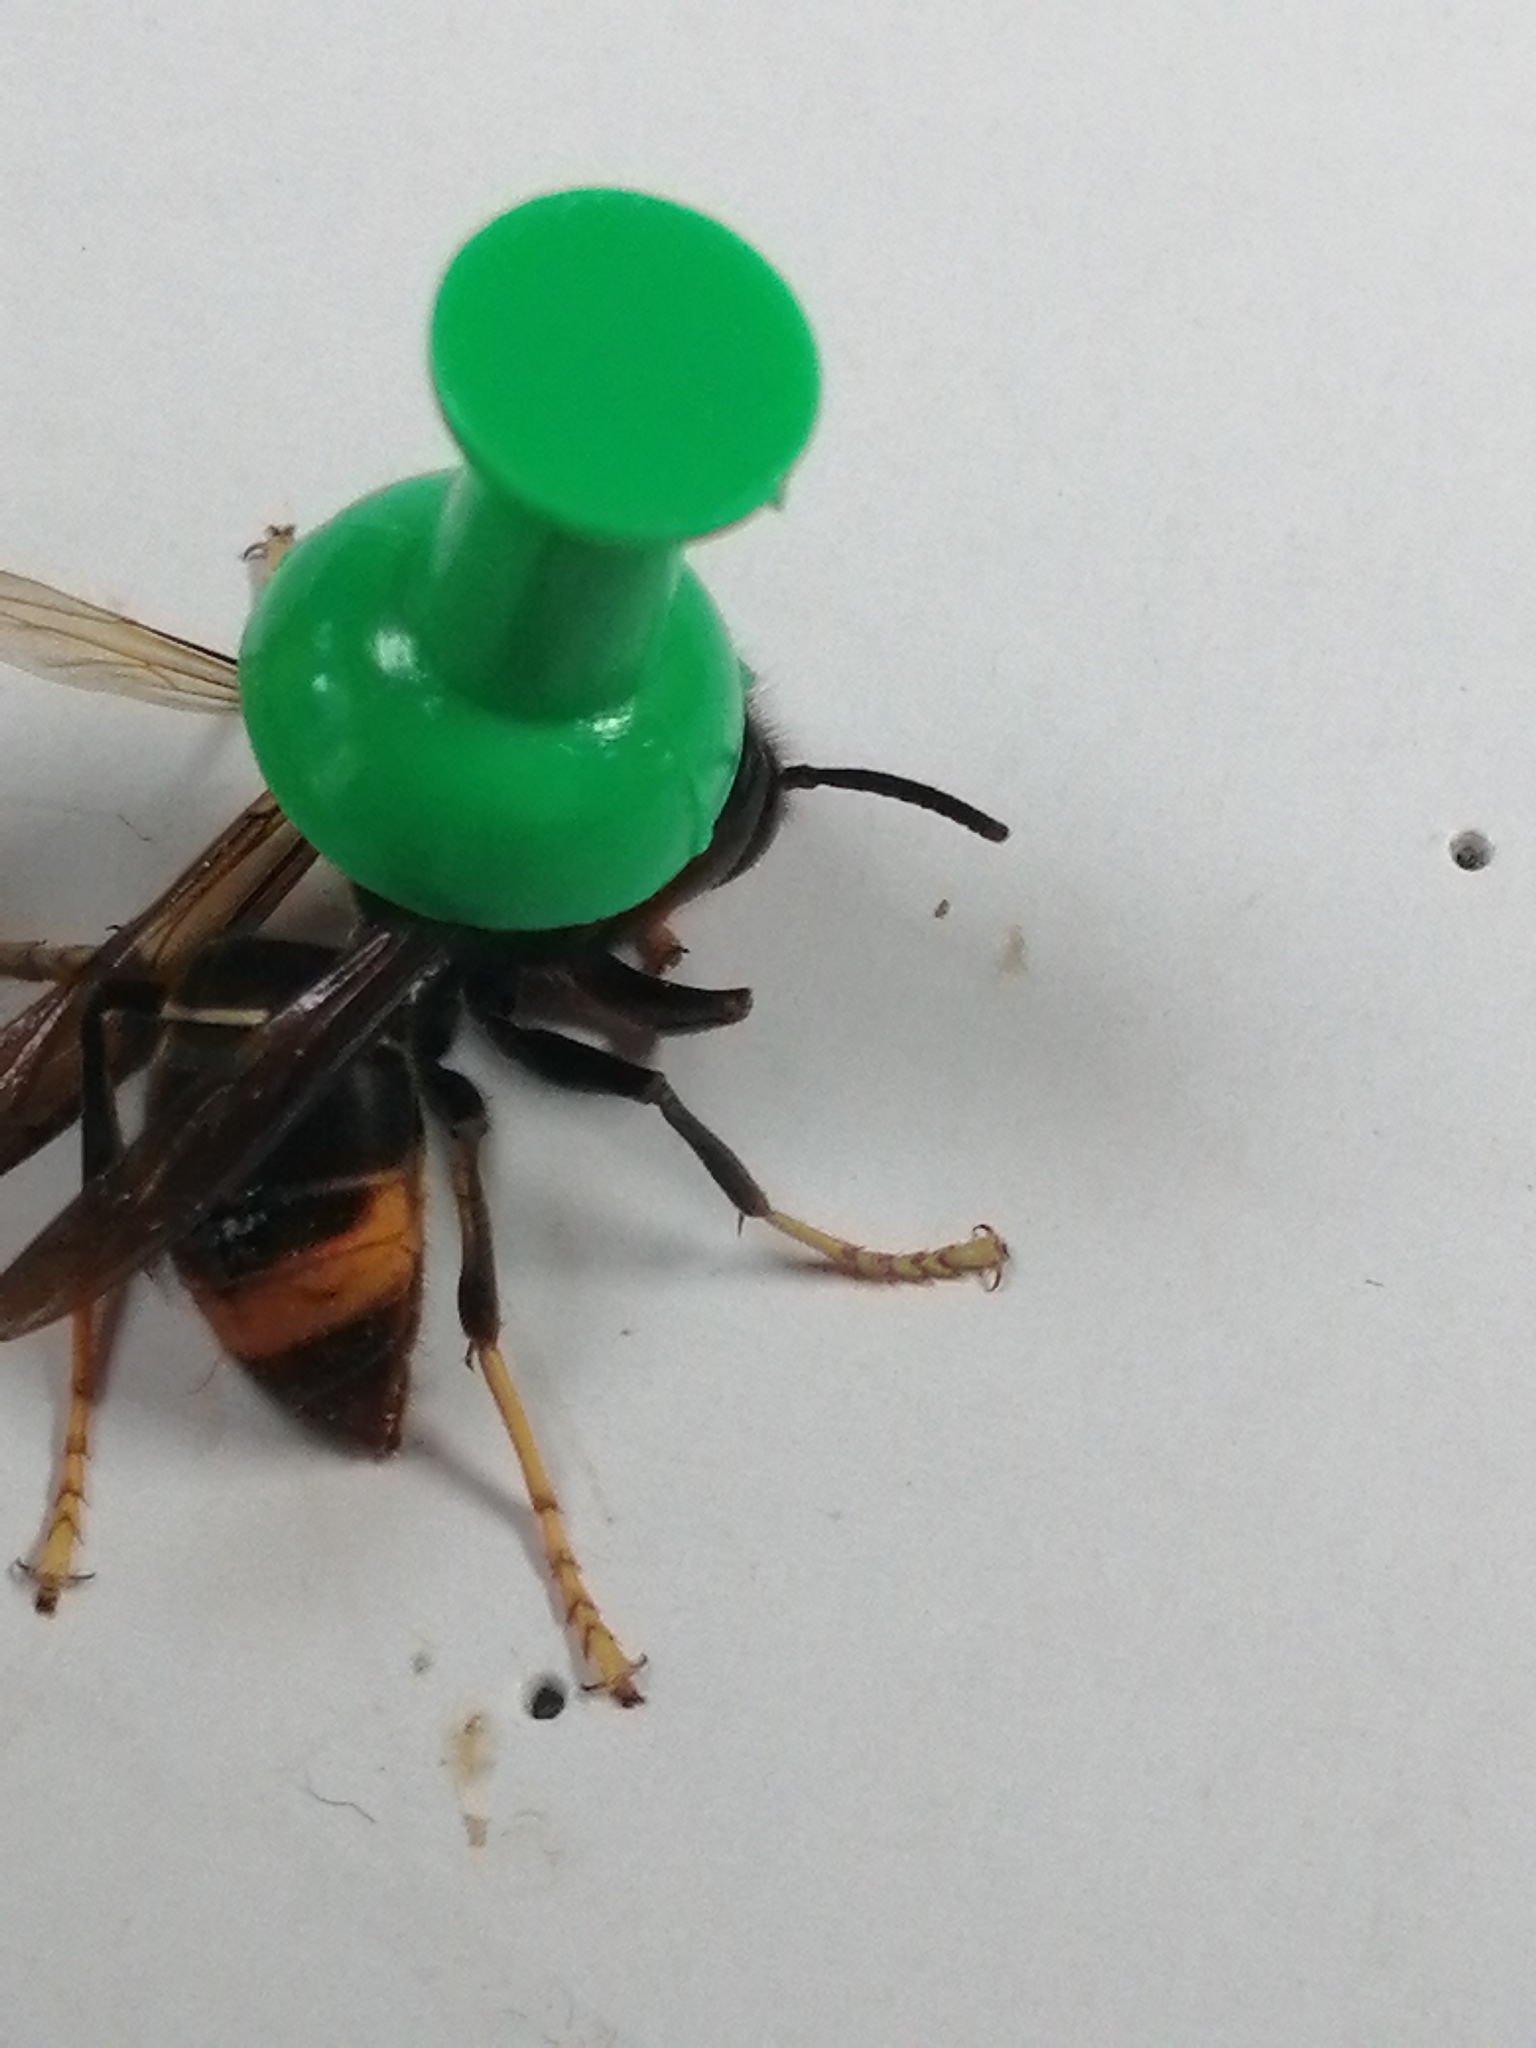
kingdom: Animalia
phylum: Arthropoda
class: Insecta
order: Hymenoptera
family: Vespidae
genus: Vespa
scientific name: Vespa velutina
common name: Asian hornet
